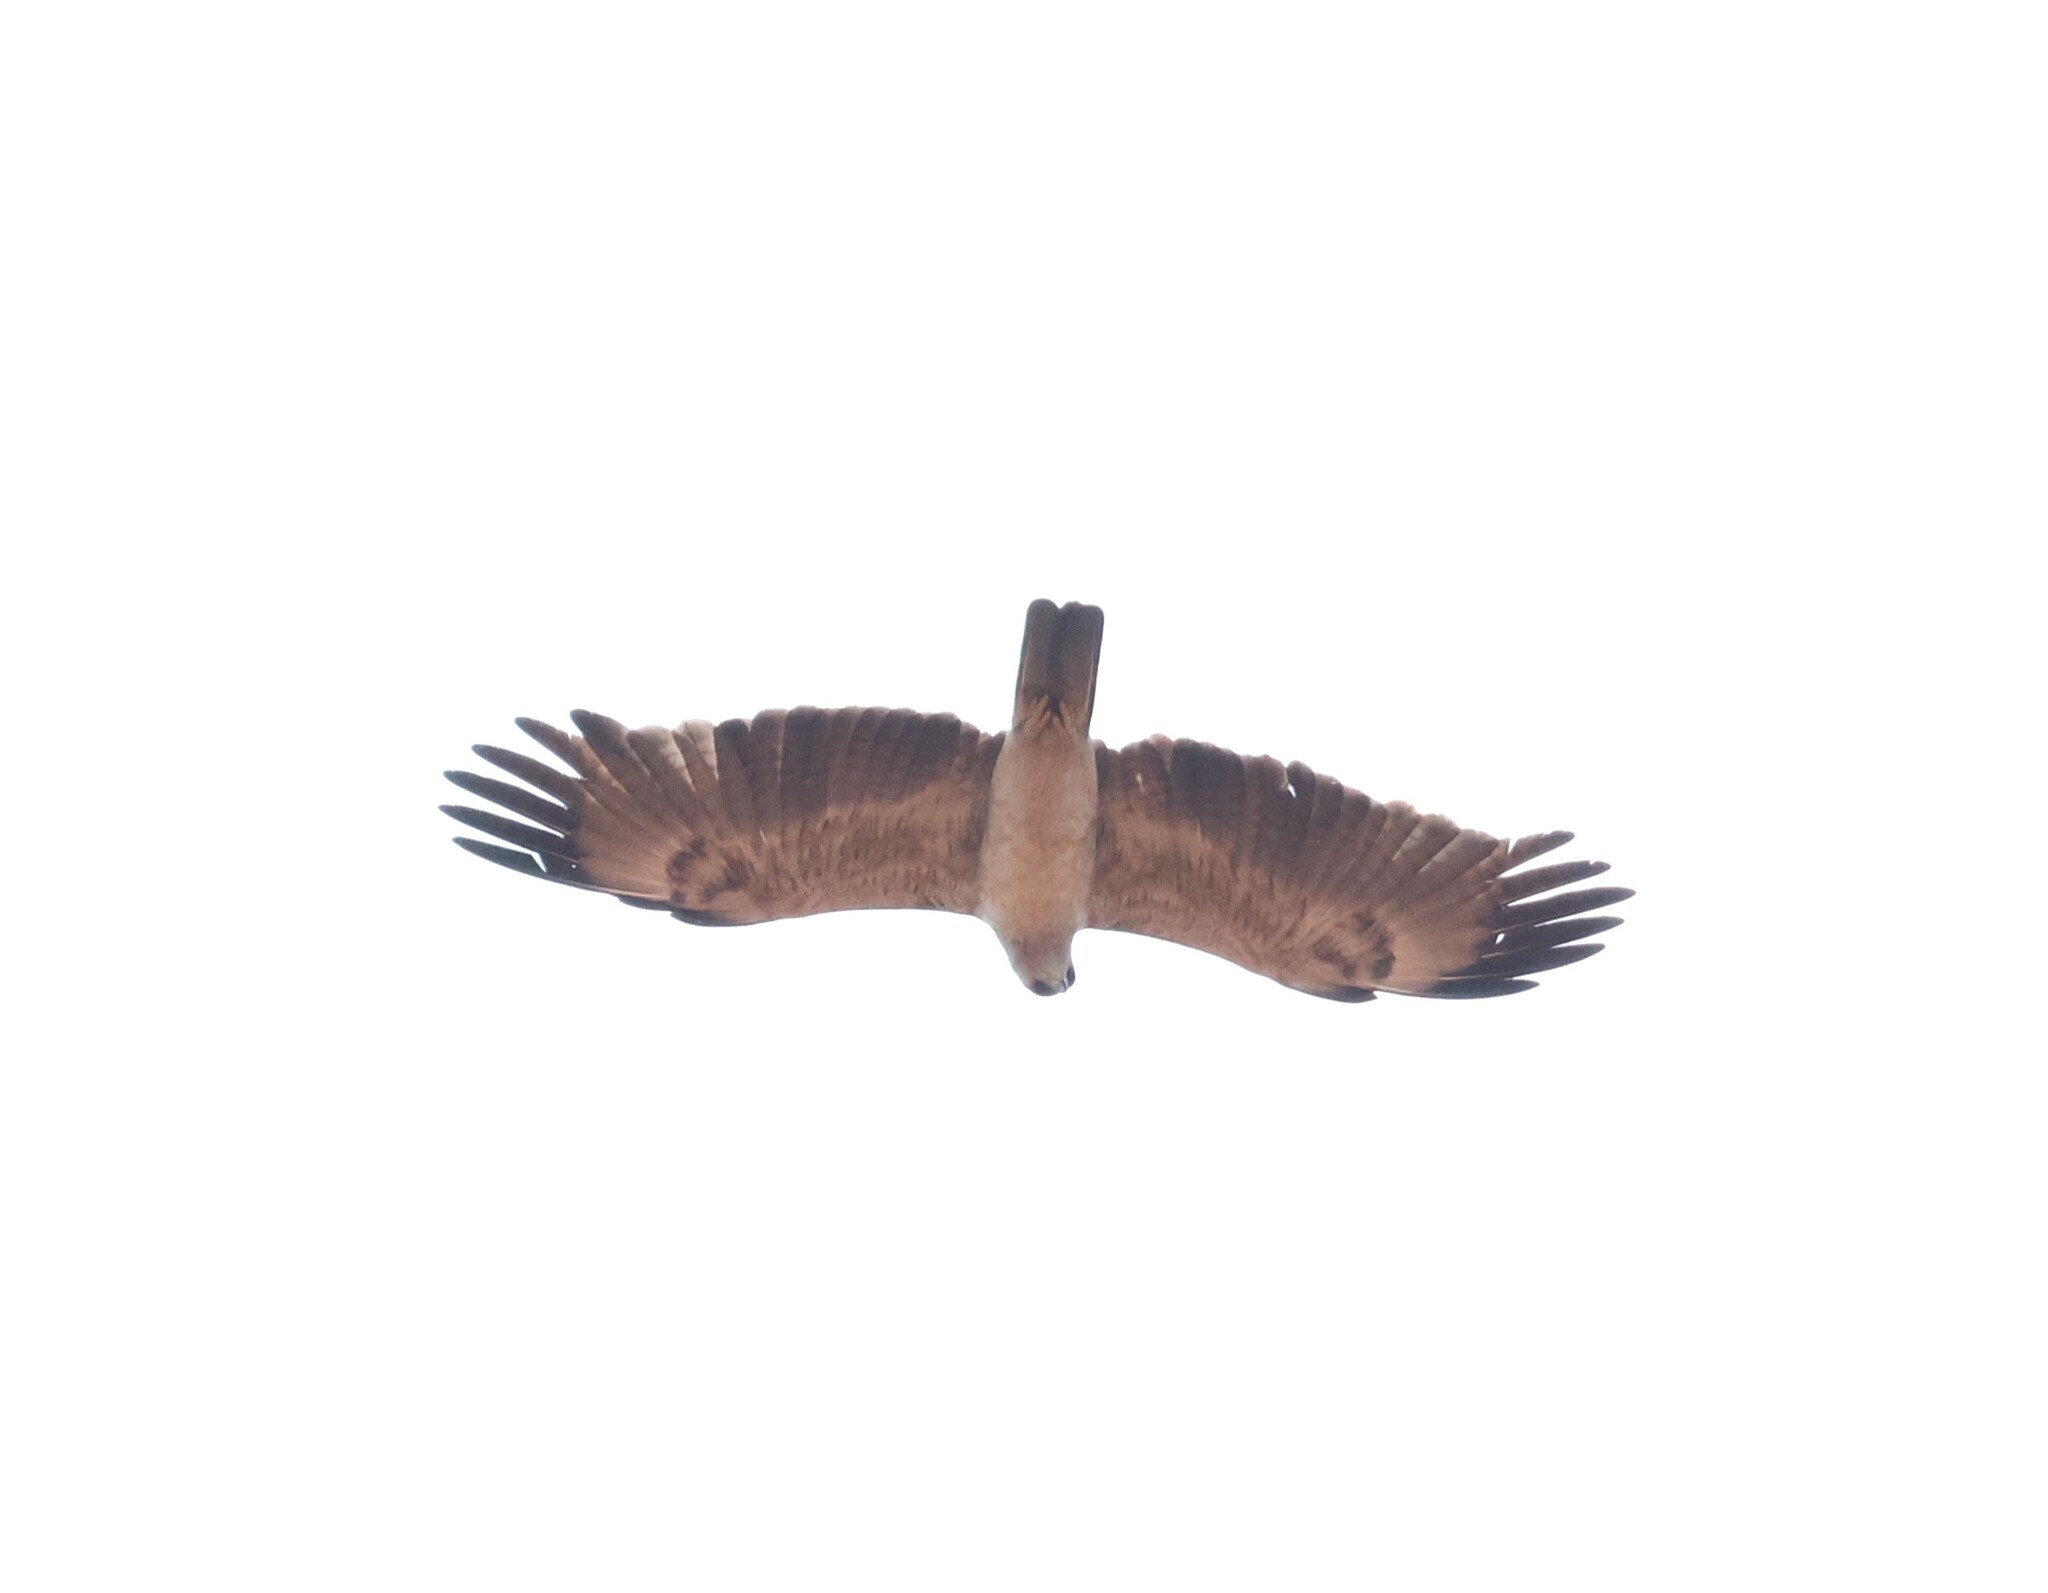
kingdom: Animalia
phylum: Chordata
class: Aves
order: Accipitriformes
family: Accipitridae
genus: Hieraaetus
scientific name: Hieraaetus wahlbergi
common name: Wahlberg's eagle
